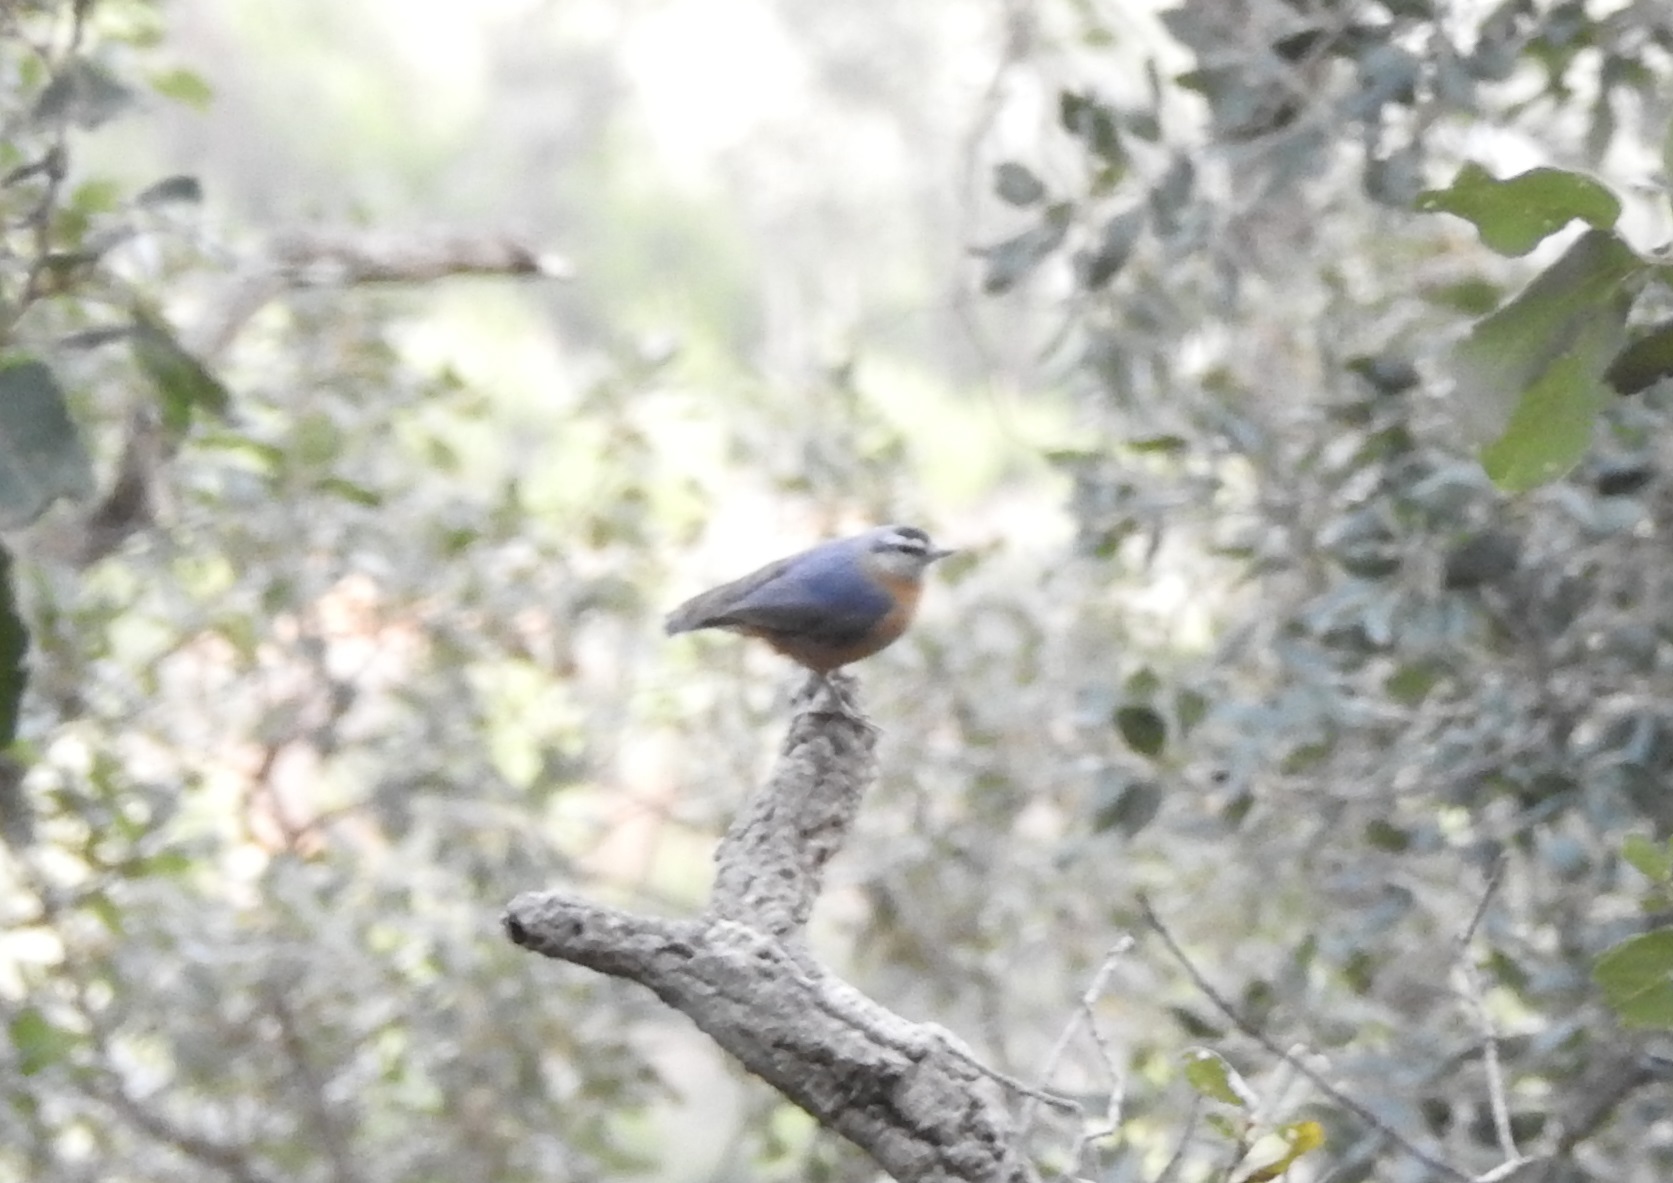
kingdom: Animalia
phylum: Chordata
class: Aves
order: Passeriformes
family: Sittidae
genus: Sitta
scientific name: Sitta ledanti
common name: Algerian nuthatch
